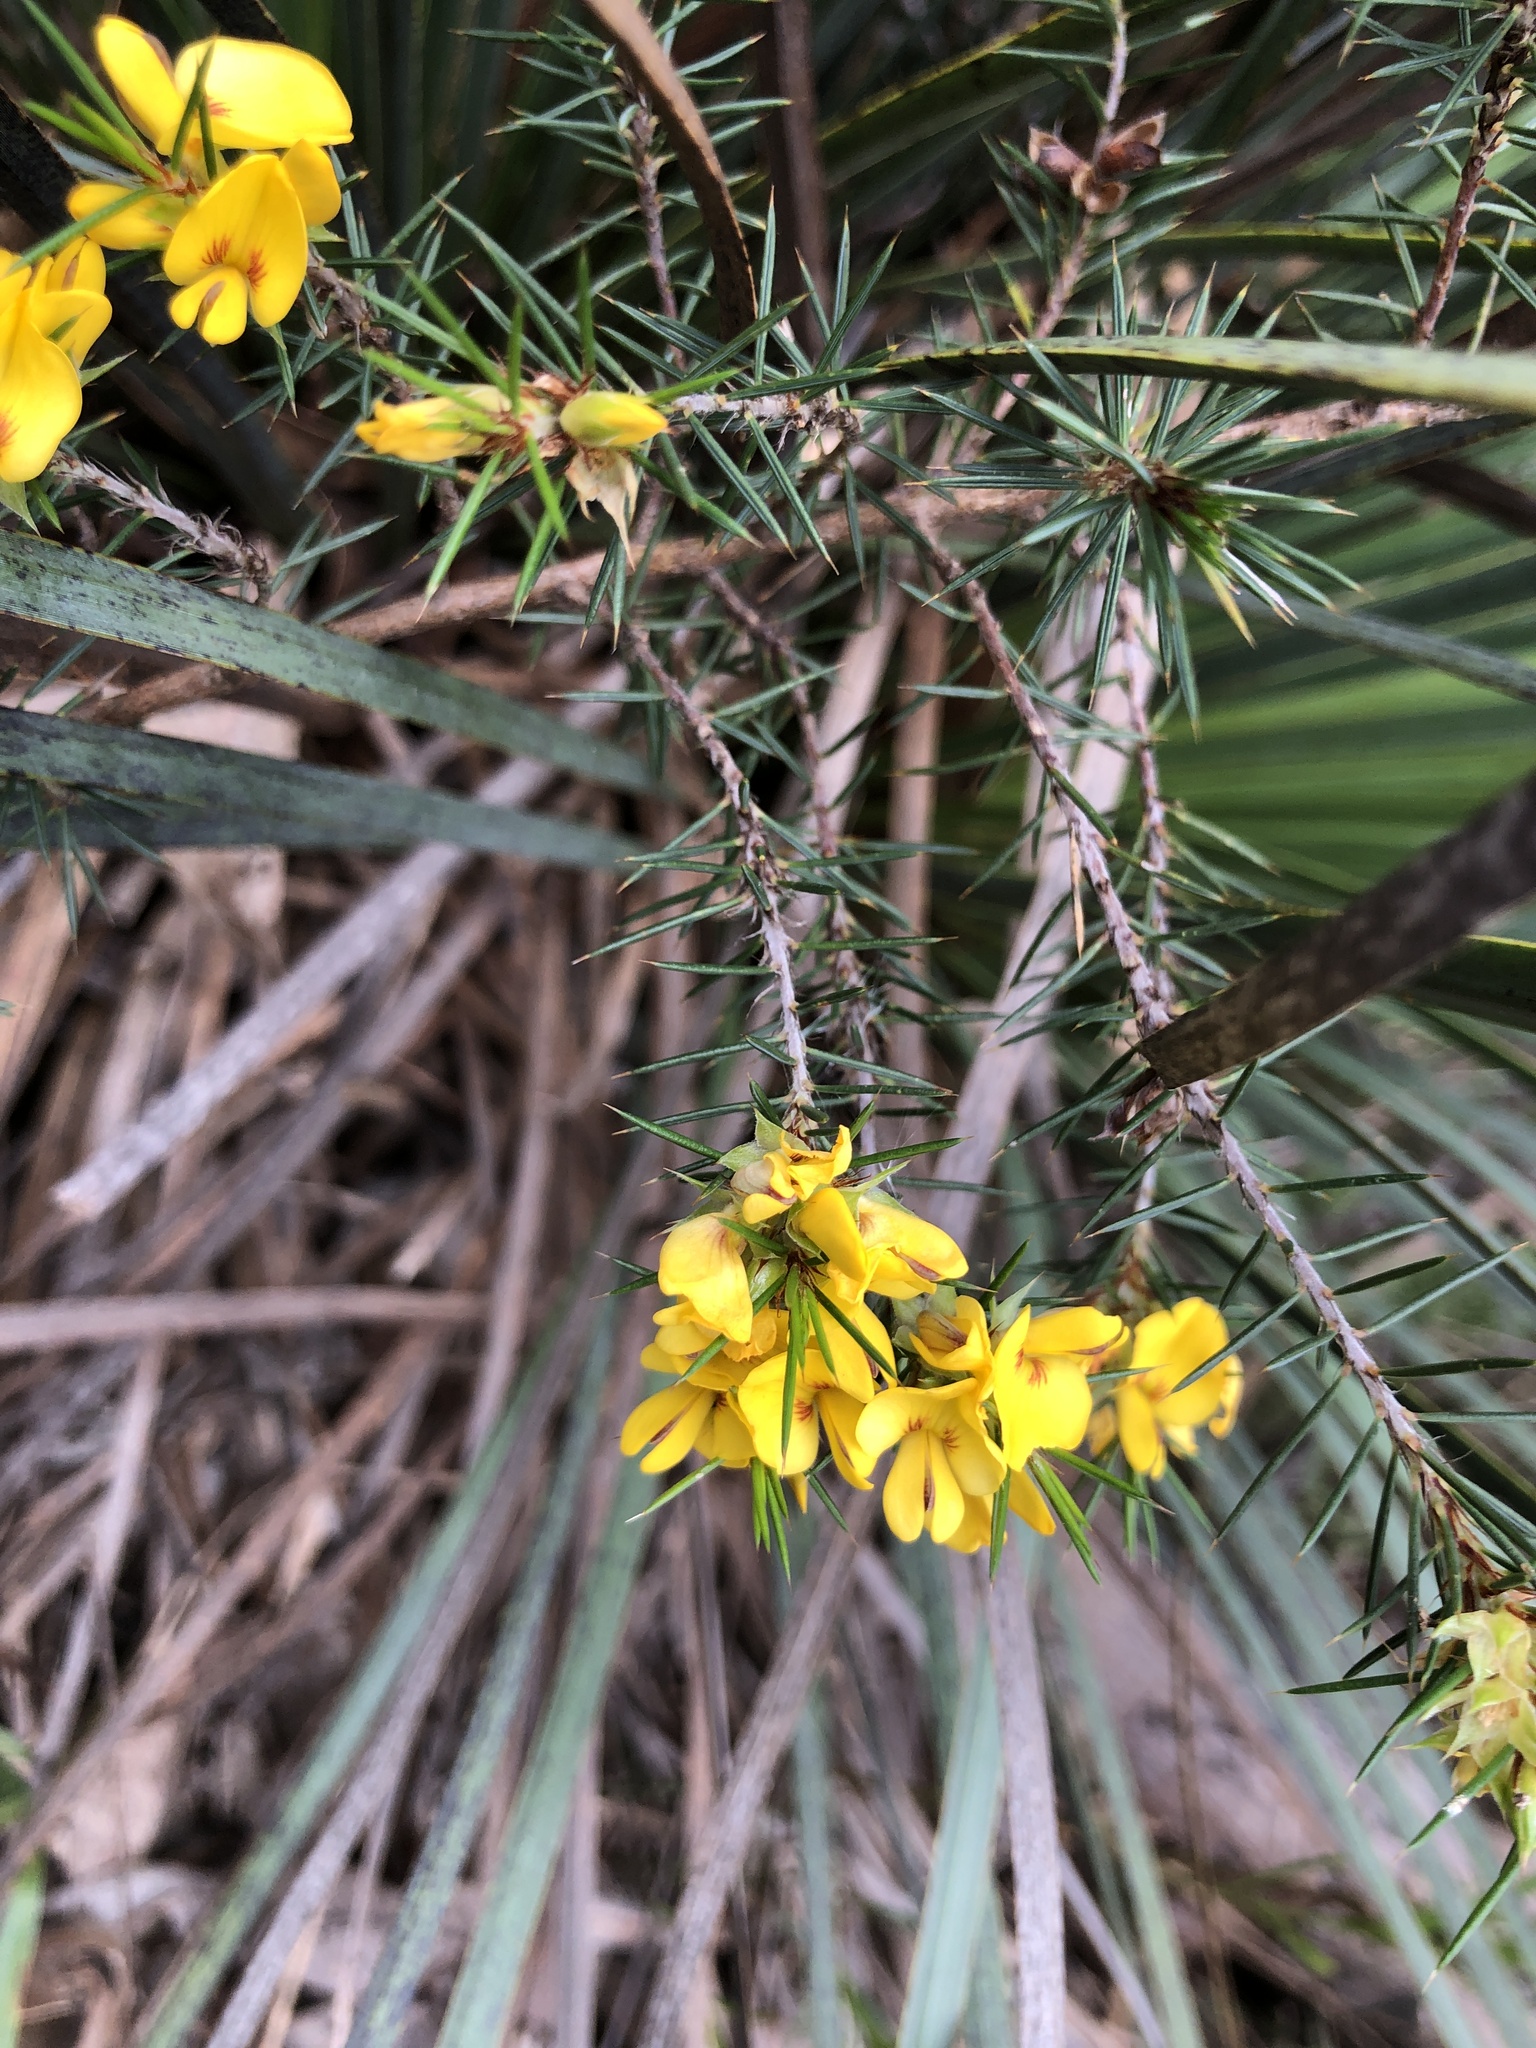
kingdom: Plantae
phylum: Tracheophyta
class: Magnoliopsida
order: Fabales
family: Fabaceae
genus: Pultenaea
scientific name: Pultenaea acerosa
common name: Bristly bush-pea
